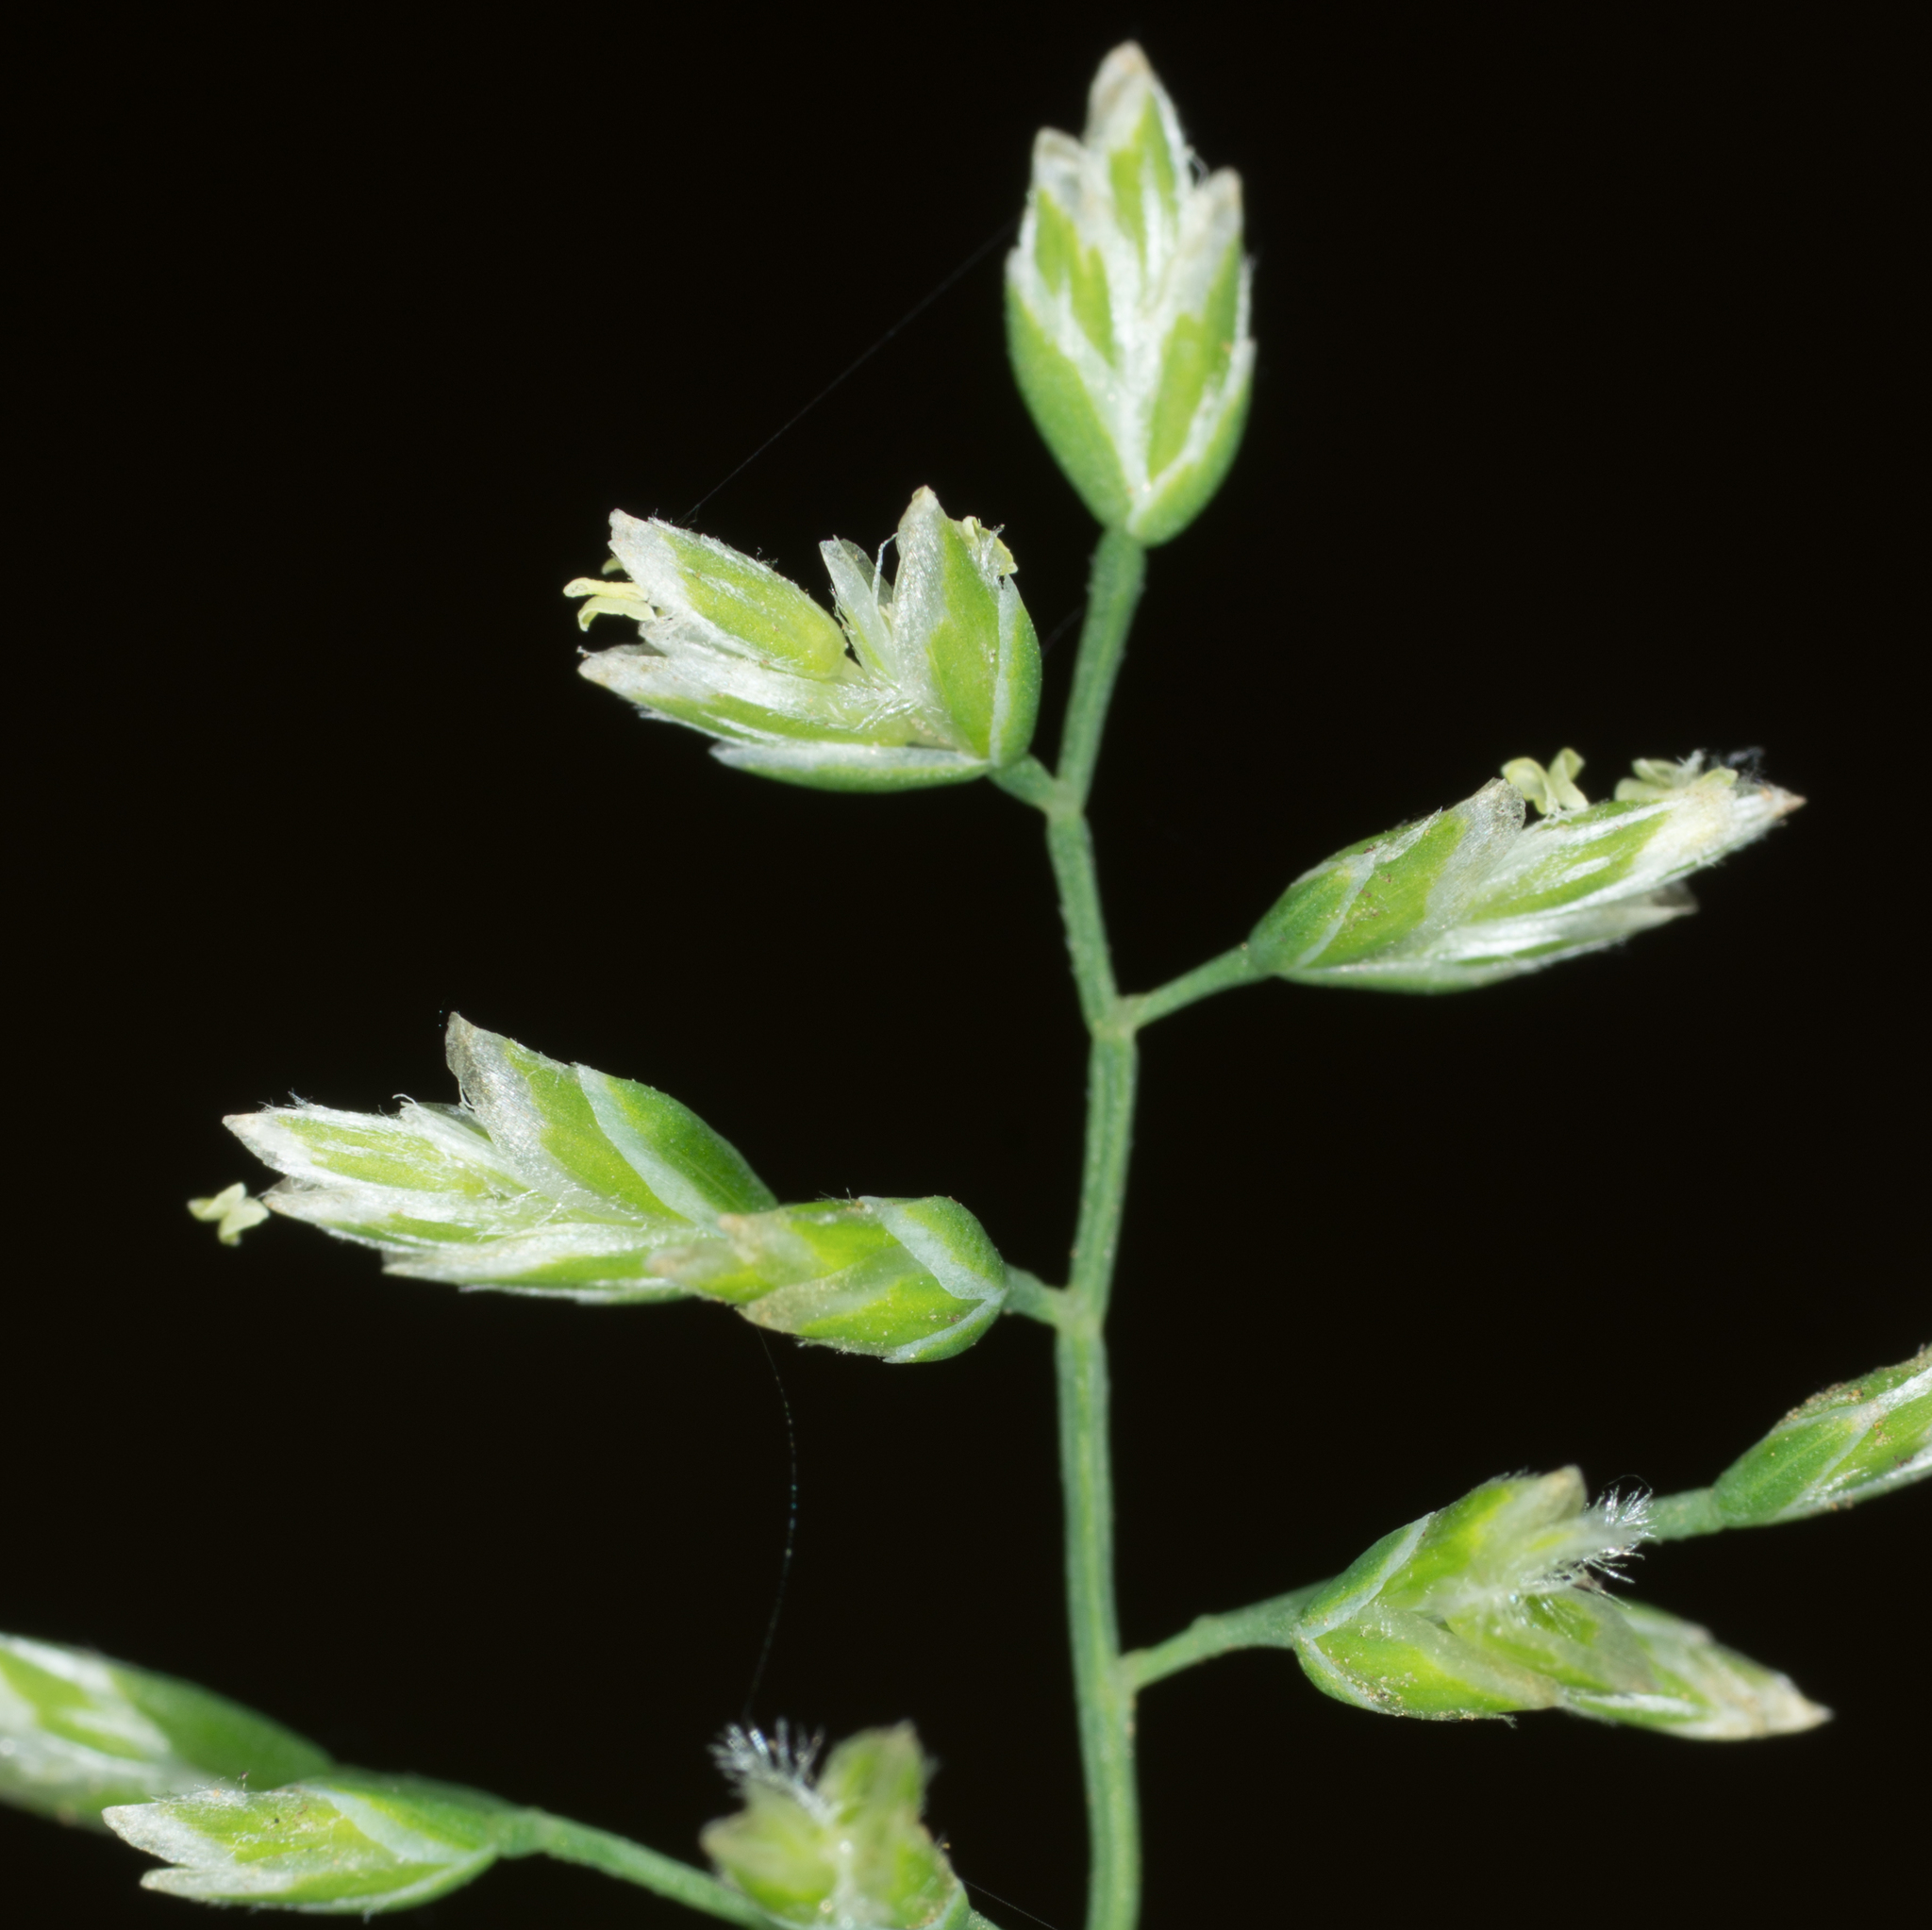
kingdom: Plantae
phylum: Tracheophyta
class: Liliopsida
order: Poales
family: Poaceae
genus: Poa
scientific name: Poa annua
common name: Annual bluegrass
